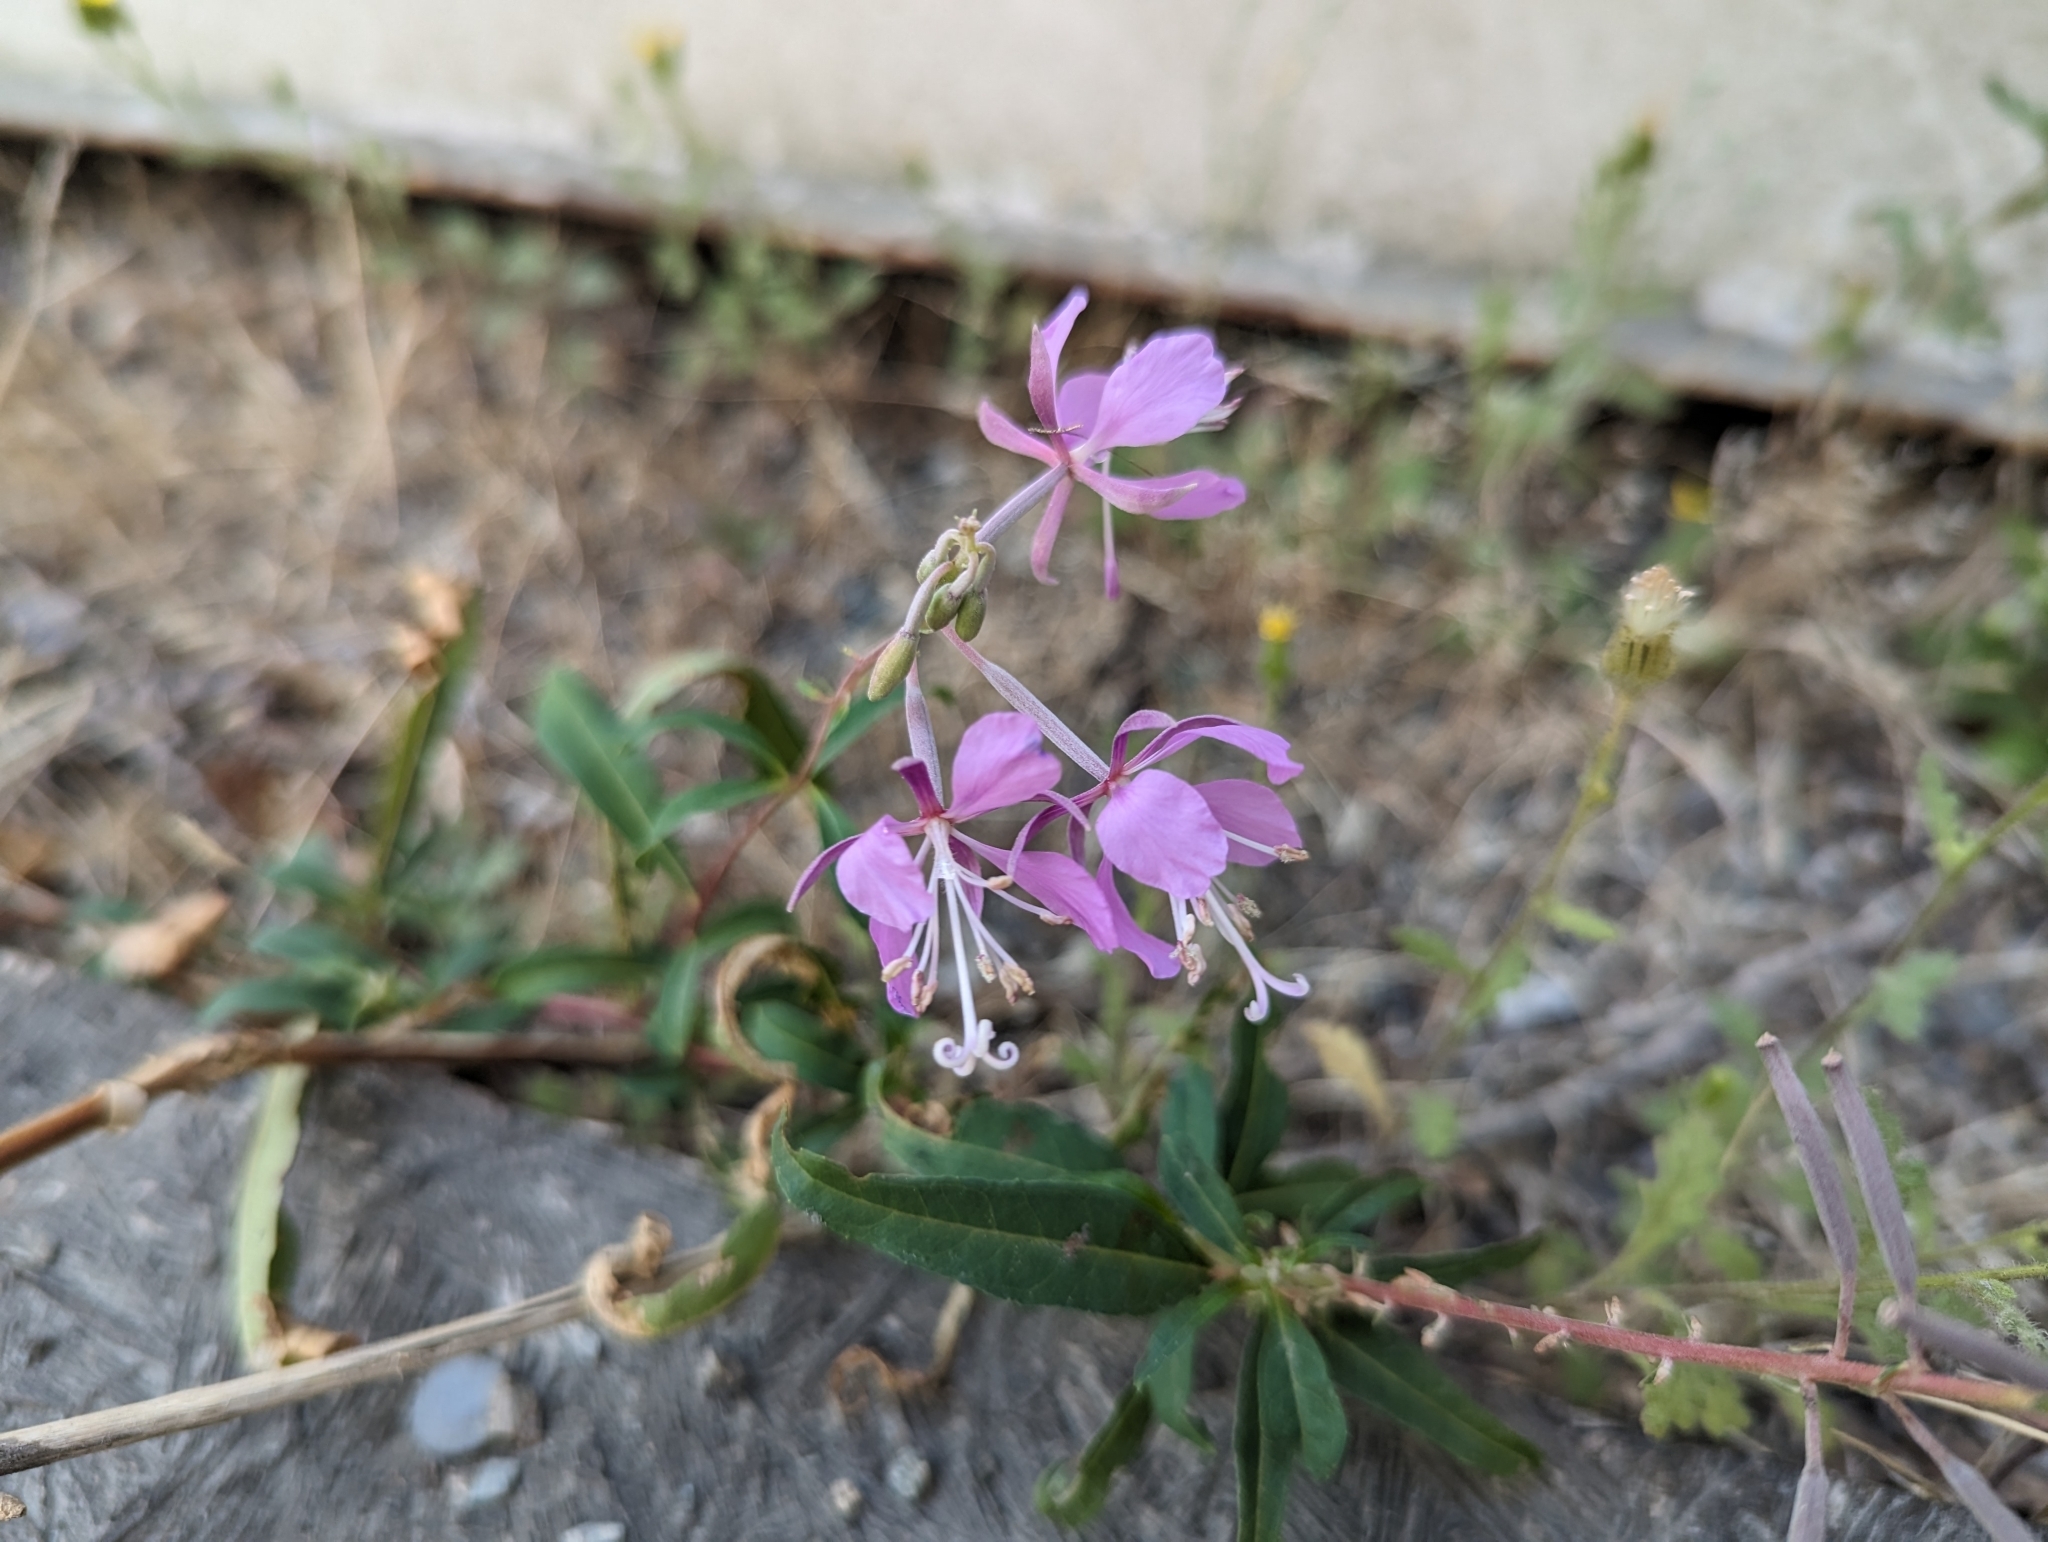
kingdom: Plantae
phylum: Tracheophyta
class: Magnoliopsida
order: Myrtales
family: Onagraceae
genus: Chamaenerion
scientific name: Chamaenerion angustifolium
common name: Fireweed
